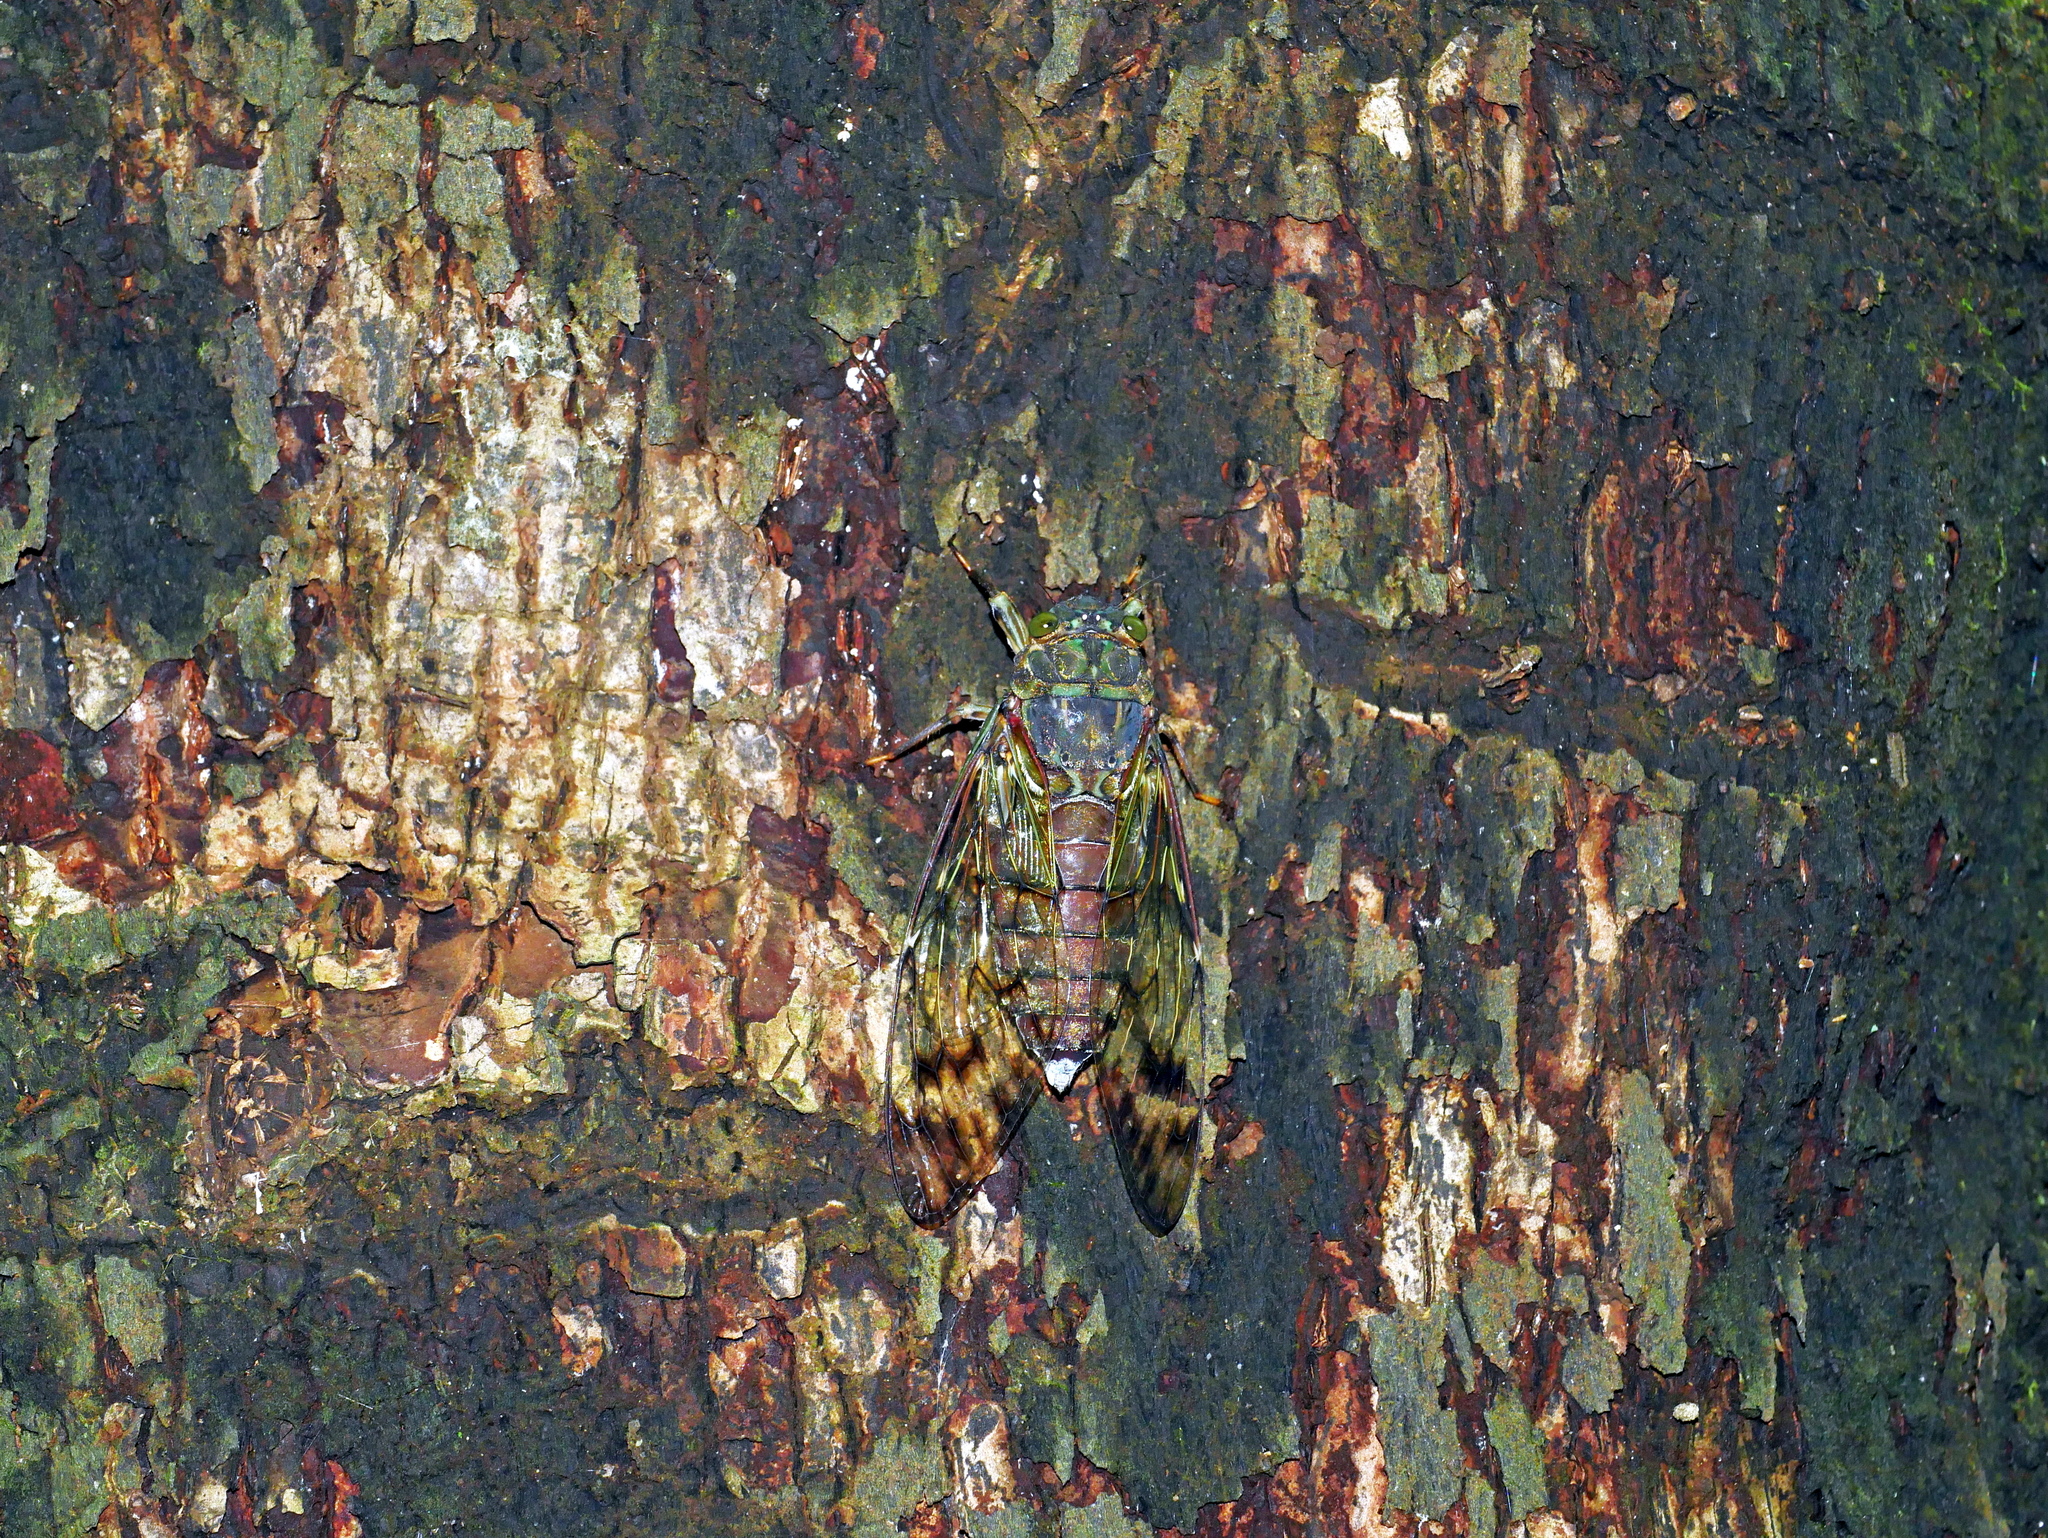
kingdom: Animalia
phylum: Arthropoda
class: Insecta
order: Hemiptera
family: Cicadidae
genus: Pomponia
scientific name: Pomponia yayeyamana
